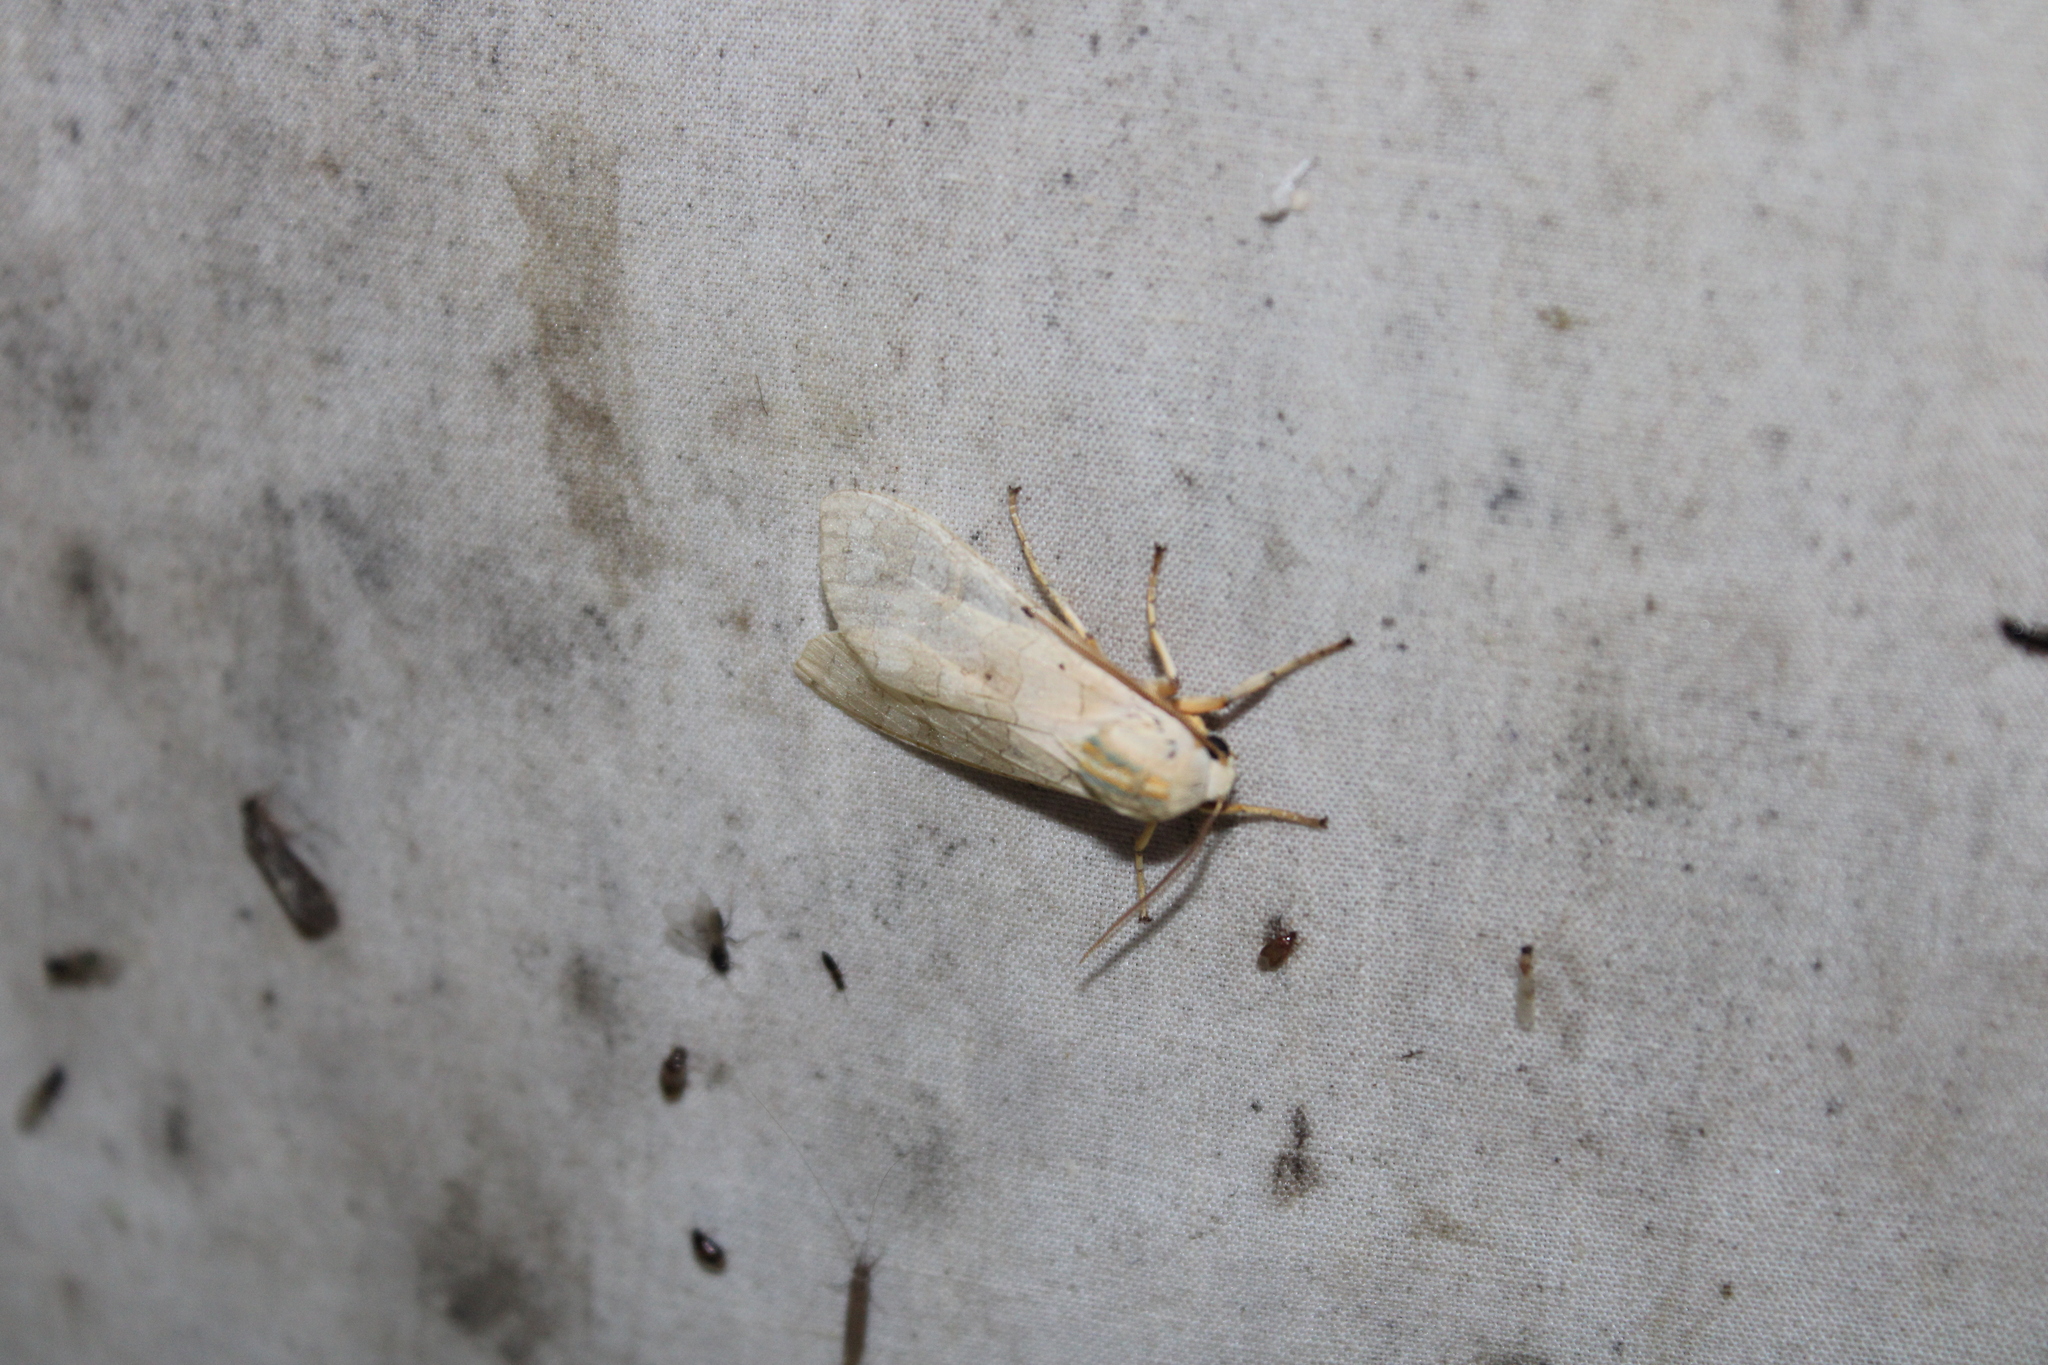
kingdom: Animalia
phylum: Arthropoda
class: Insecta
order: Lepidoptera
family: Erebidae
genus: Halysidota
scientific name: Halysidota
